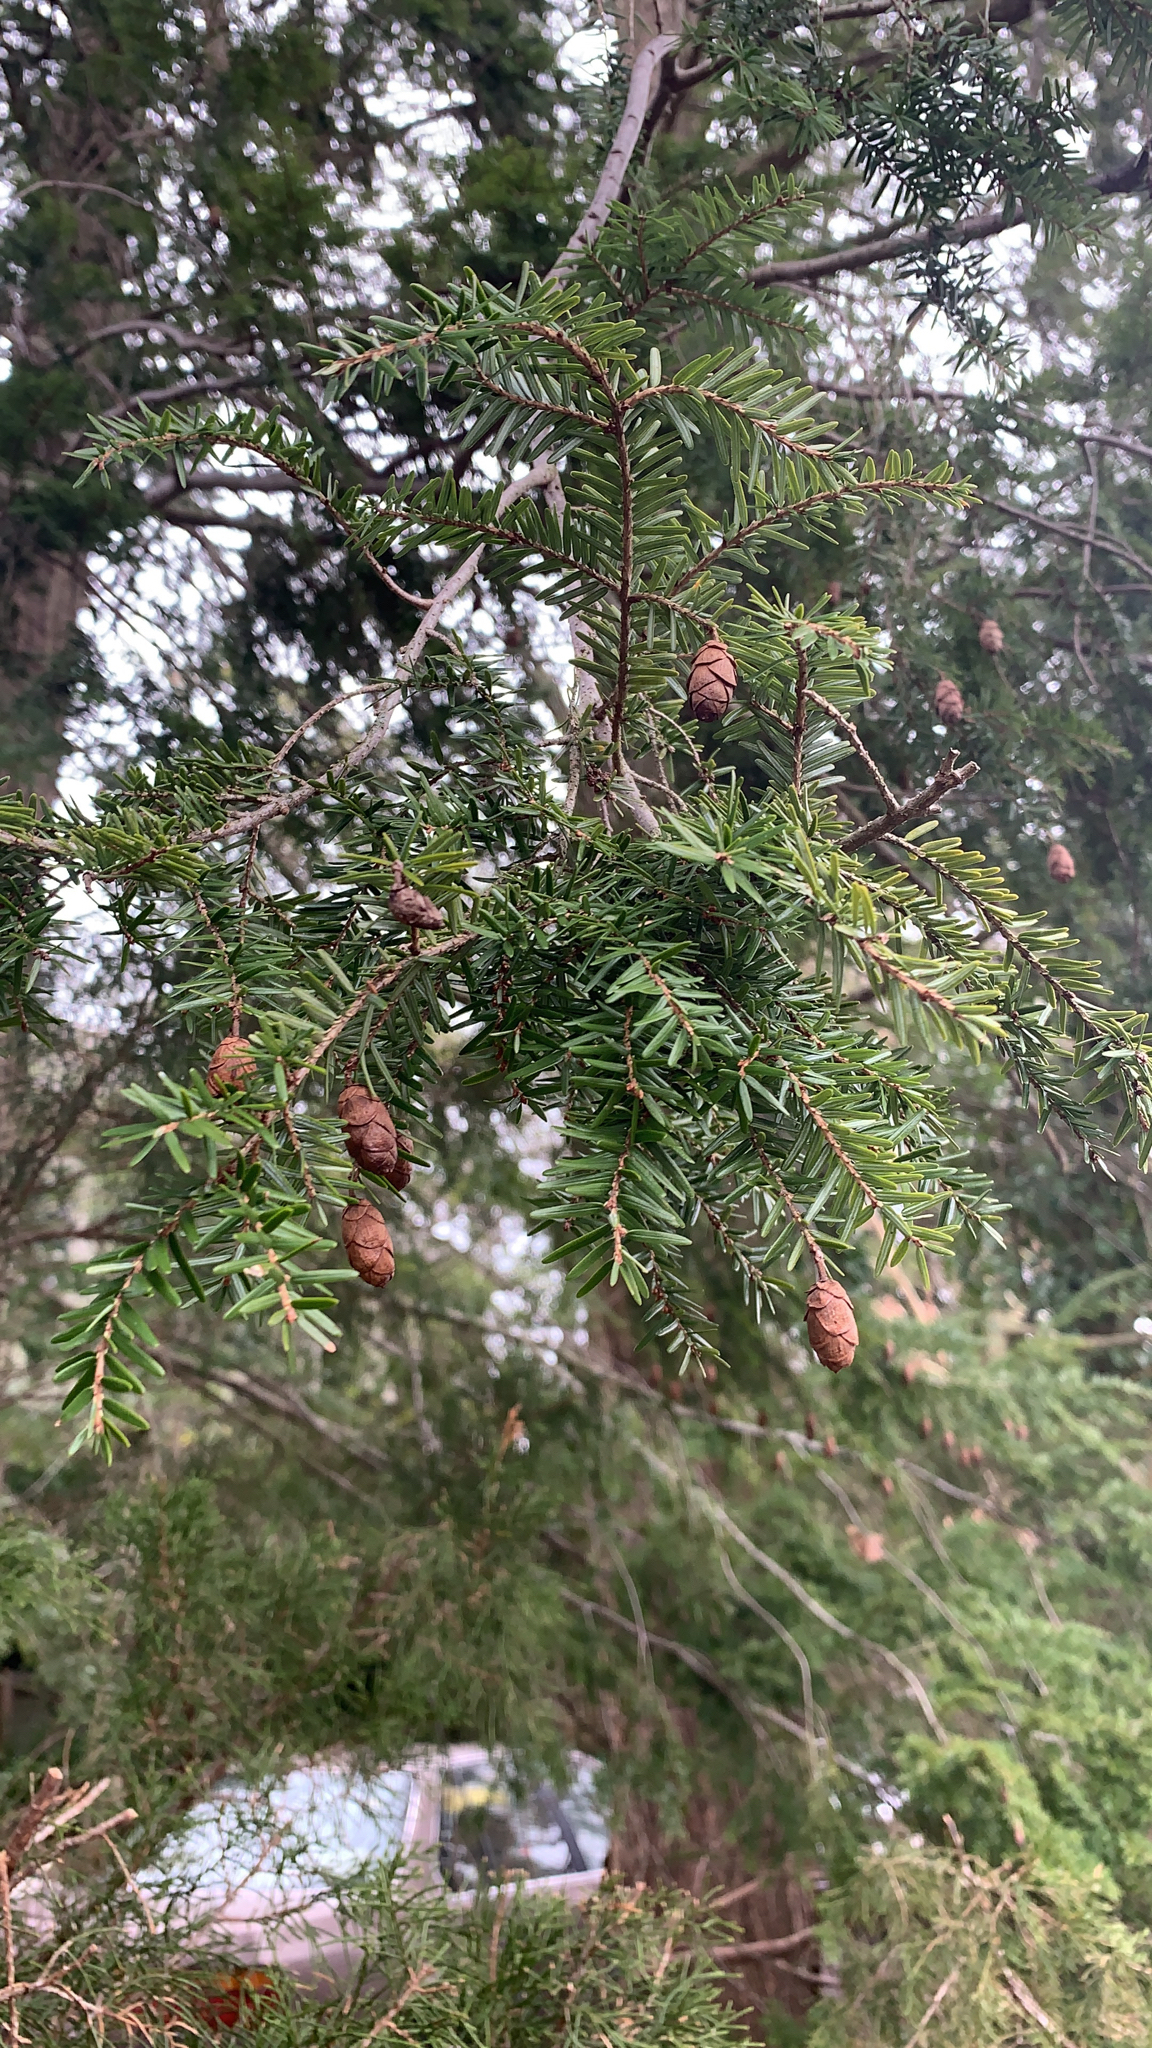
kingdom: Plantae
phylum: Tracheophyta
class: Pinopsida
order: Pinales
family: Pinaceae
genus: Tsuga
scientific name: Tsuga canadensis
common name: Eastern hemlock
